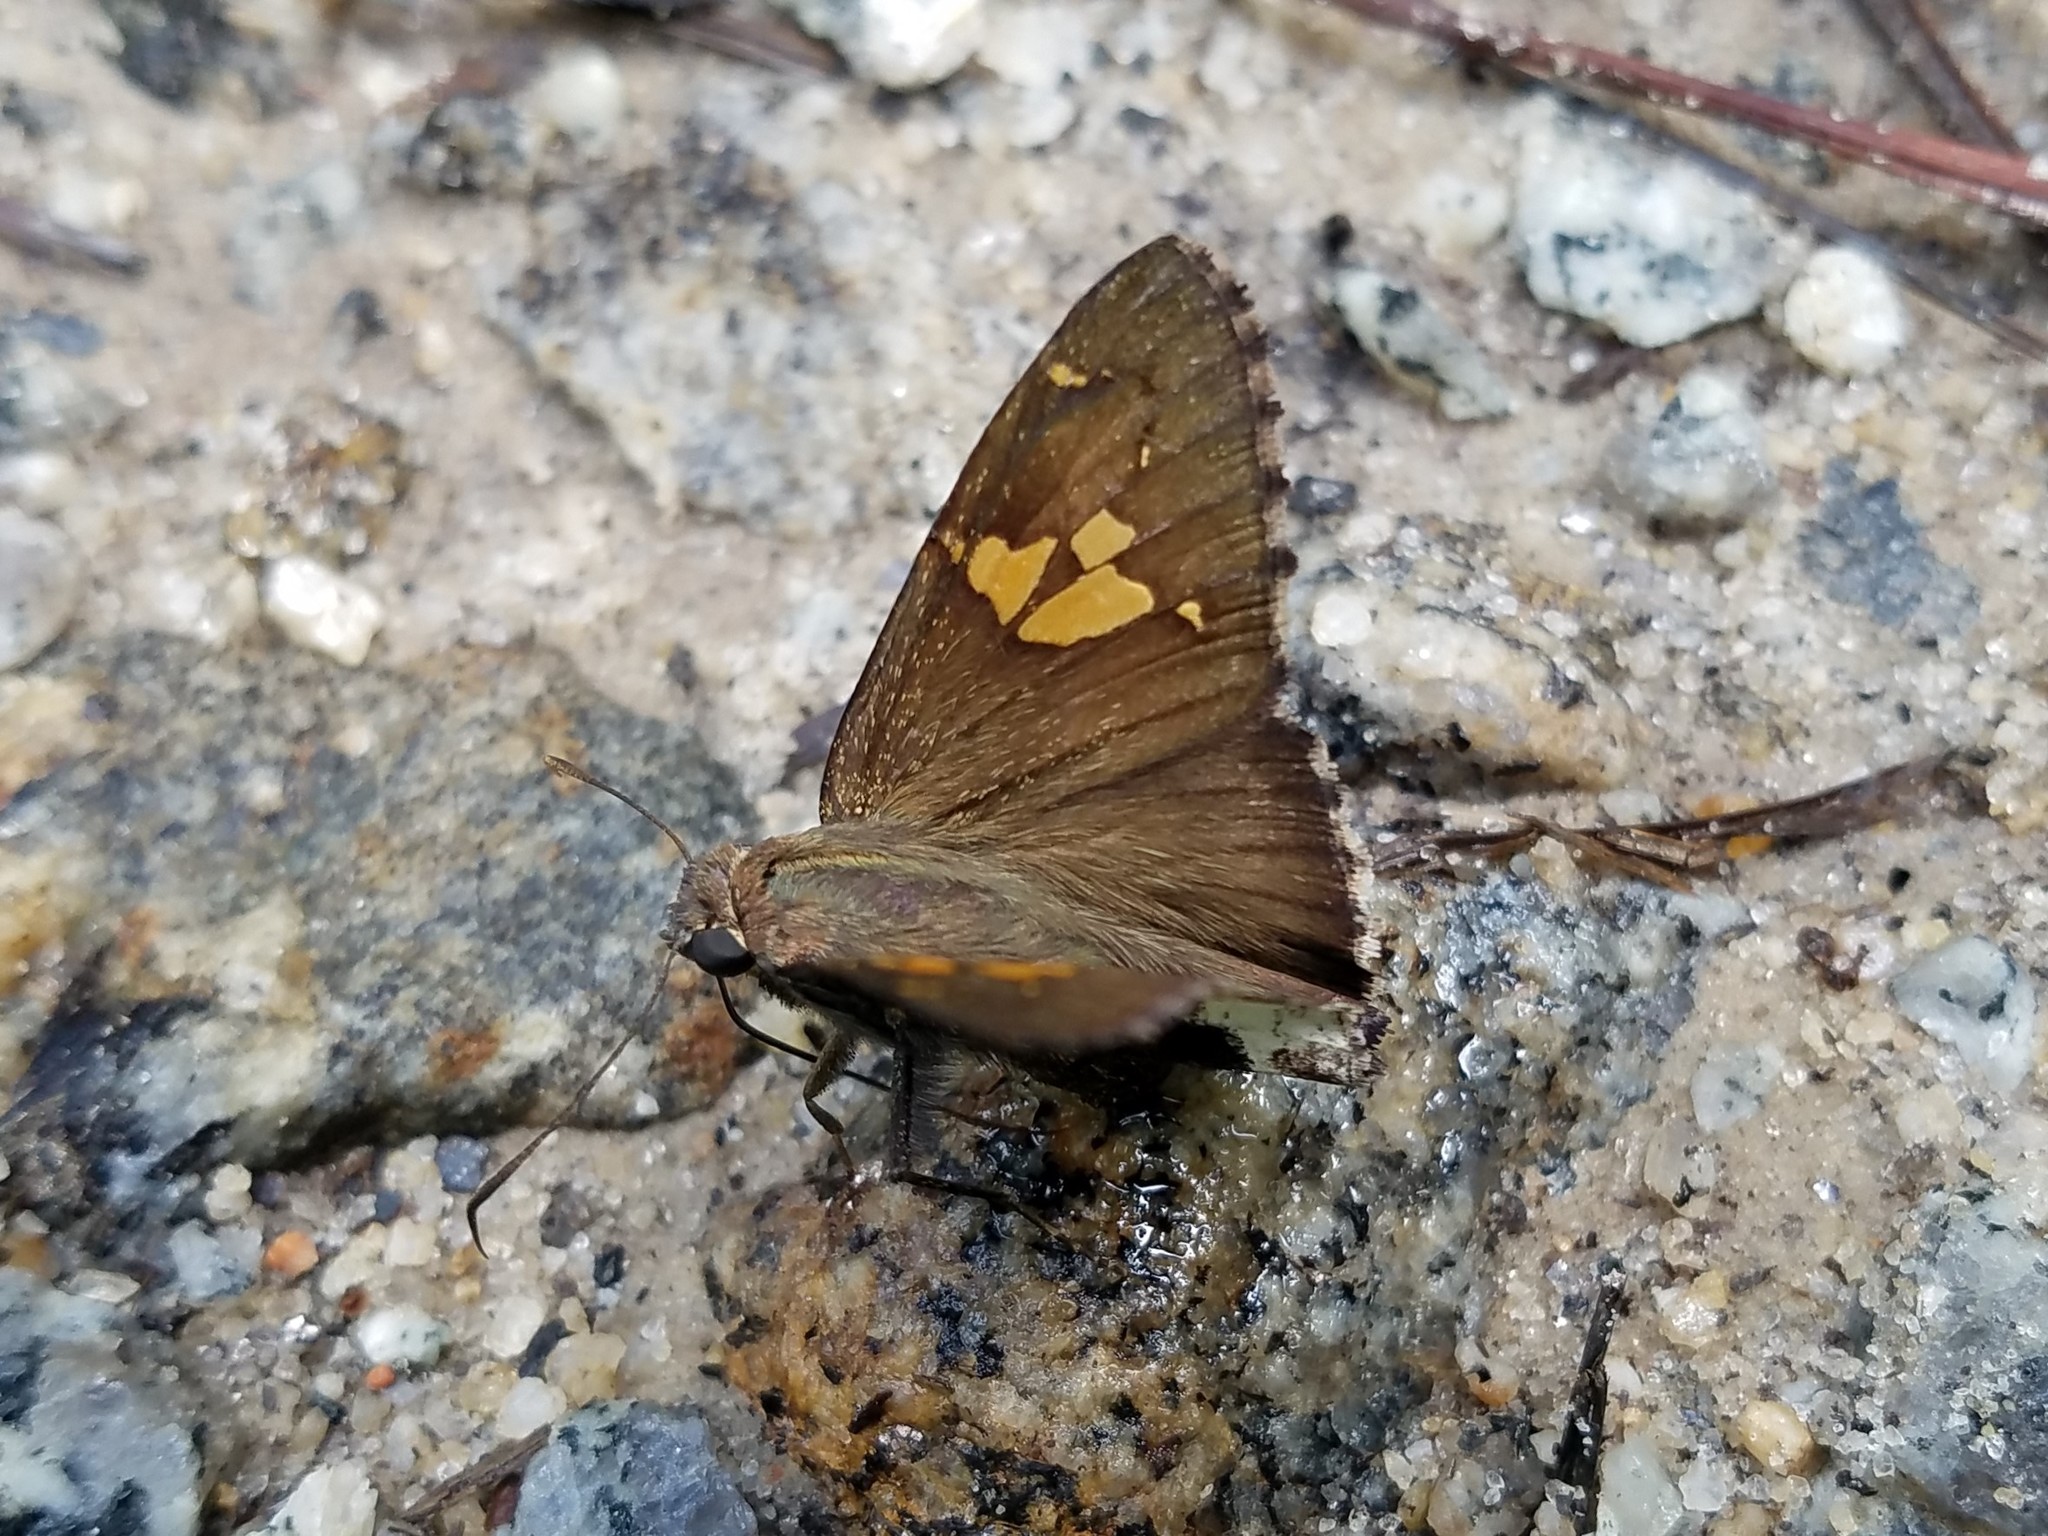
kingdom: Animalia
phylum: Arthropoda
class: Insecta
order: Lepidoptera
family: Hesperiidae
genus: Thorybes
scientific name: Thorybes lyciades
